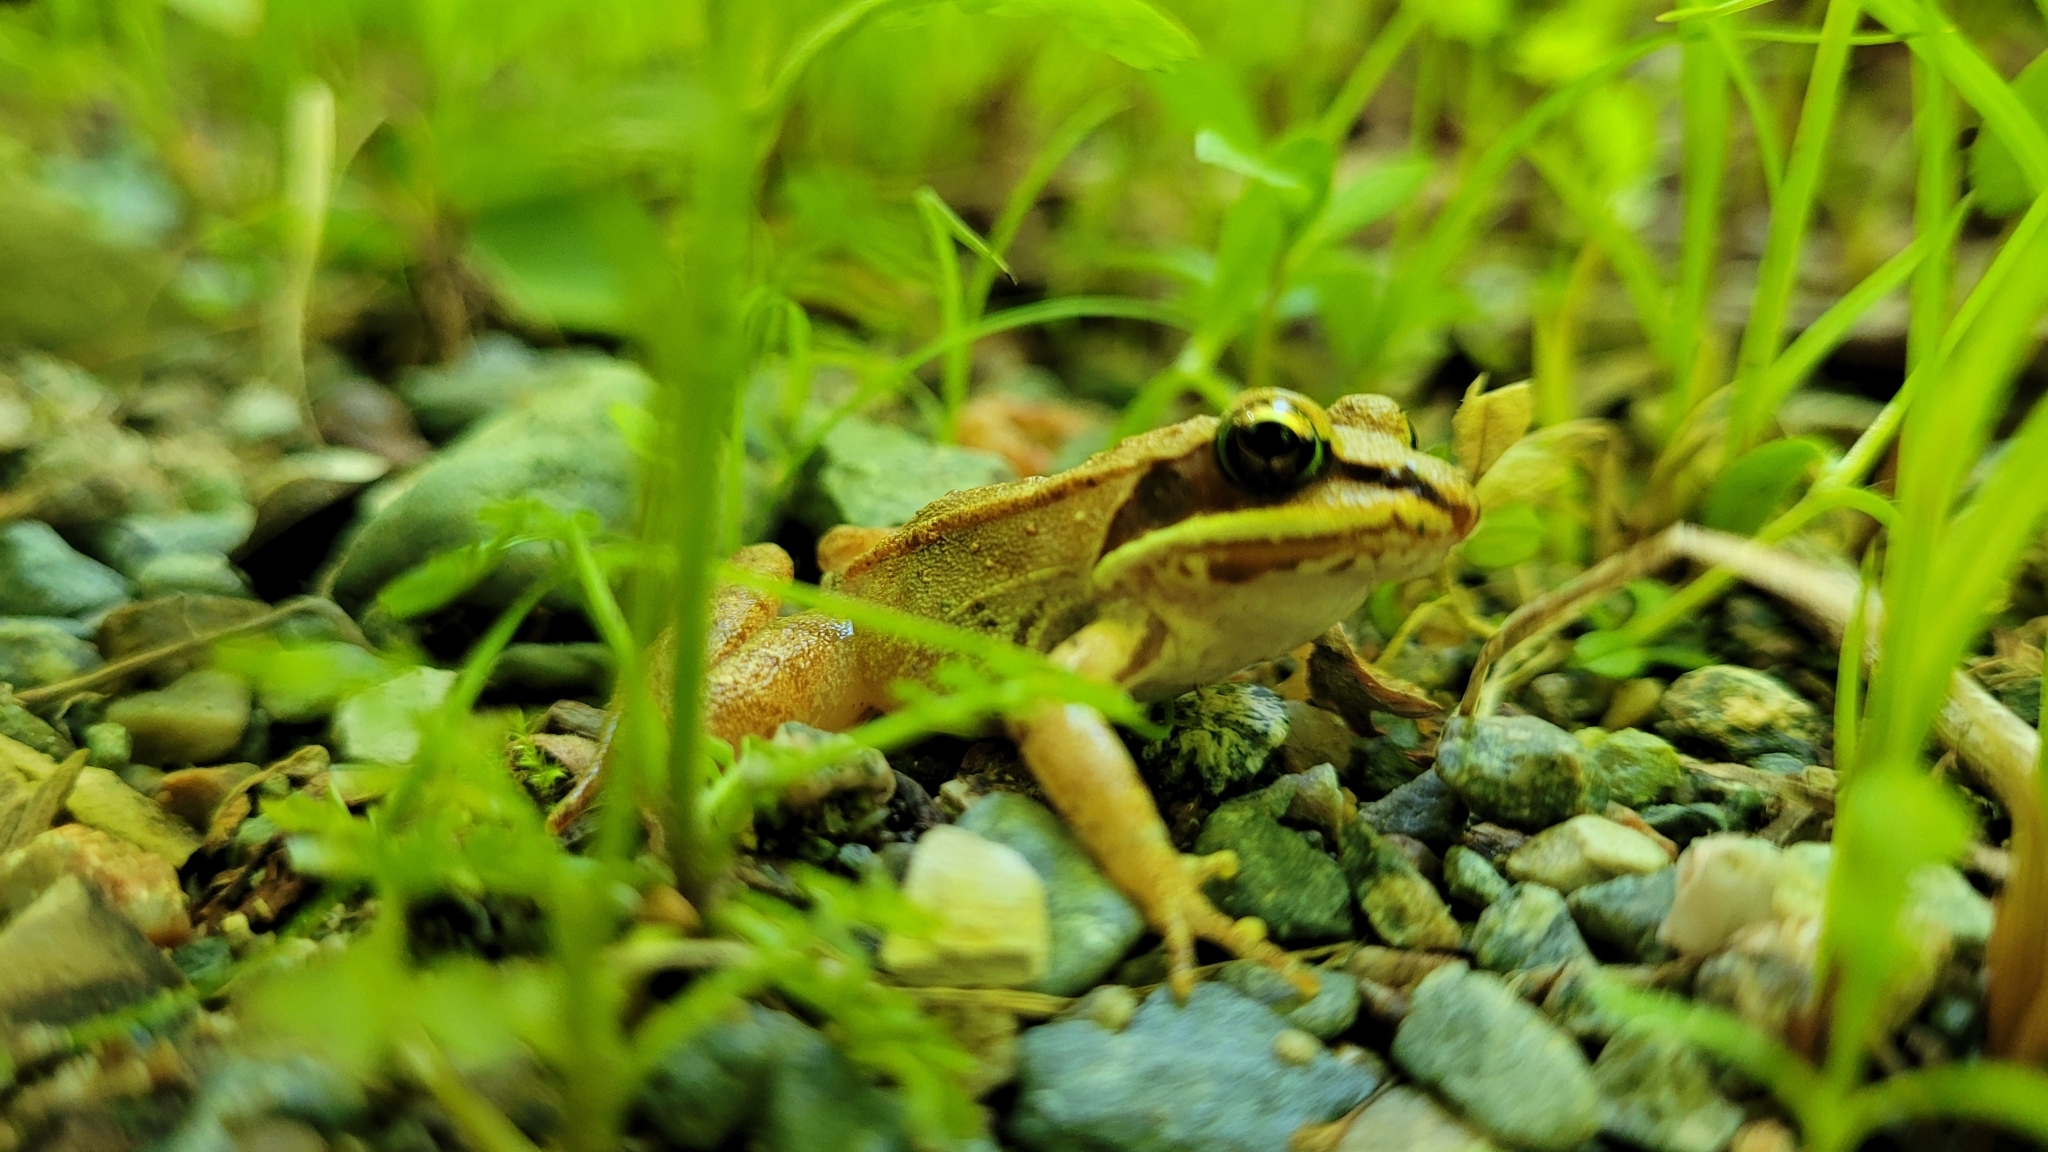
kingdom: Animalia
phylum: Chordata
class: Amphibia
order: Anura
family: Ranidae
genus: Lithobates
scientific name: Lithobates sylvaticus
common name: Wood frog
